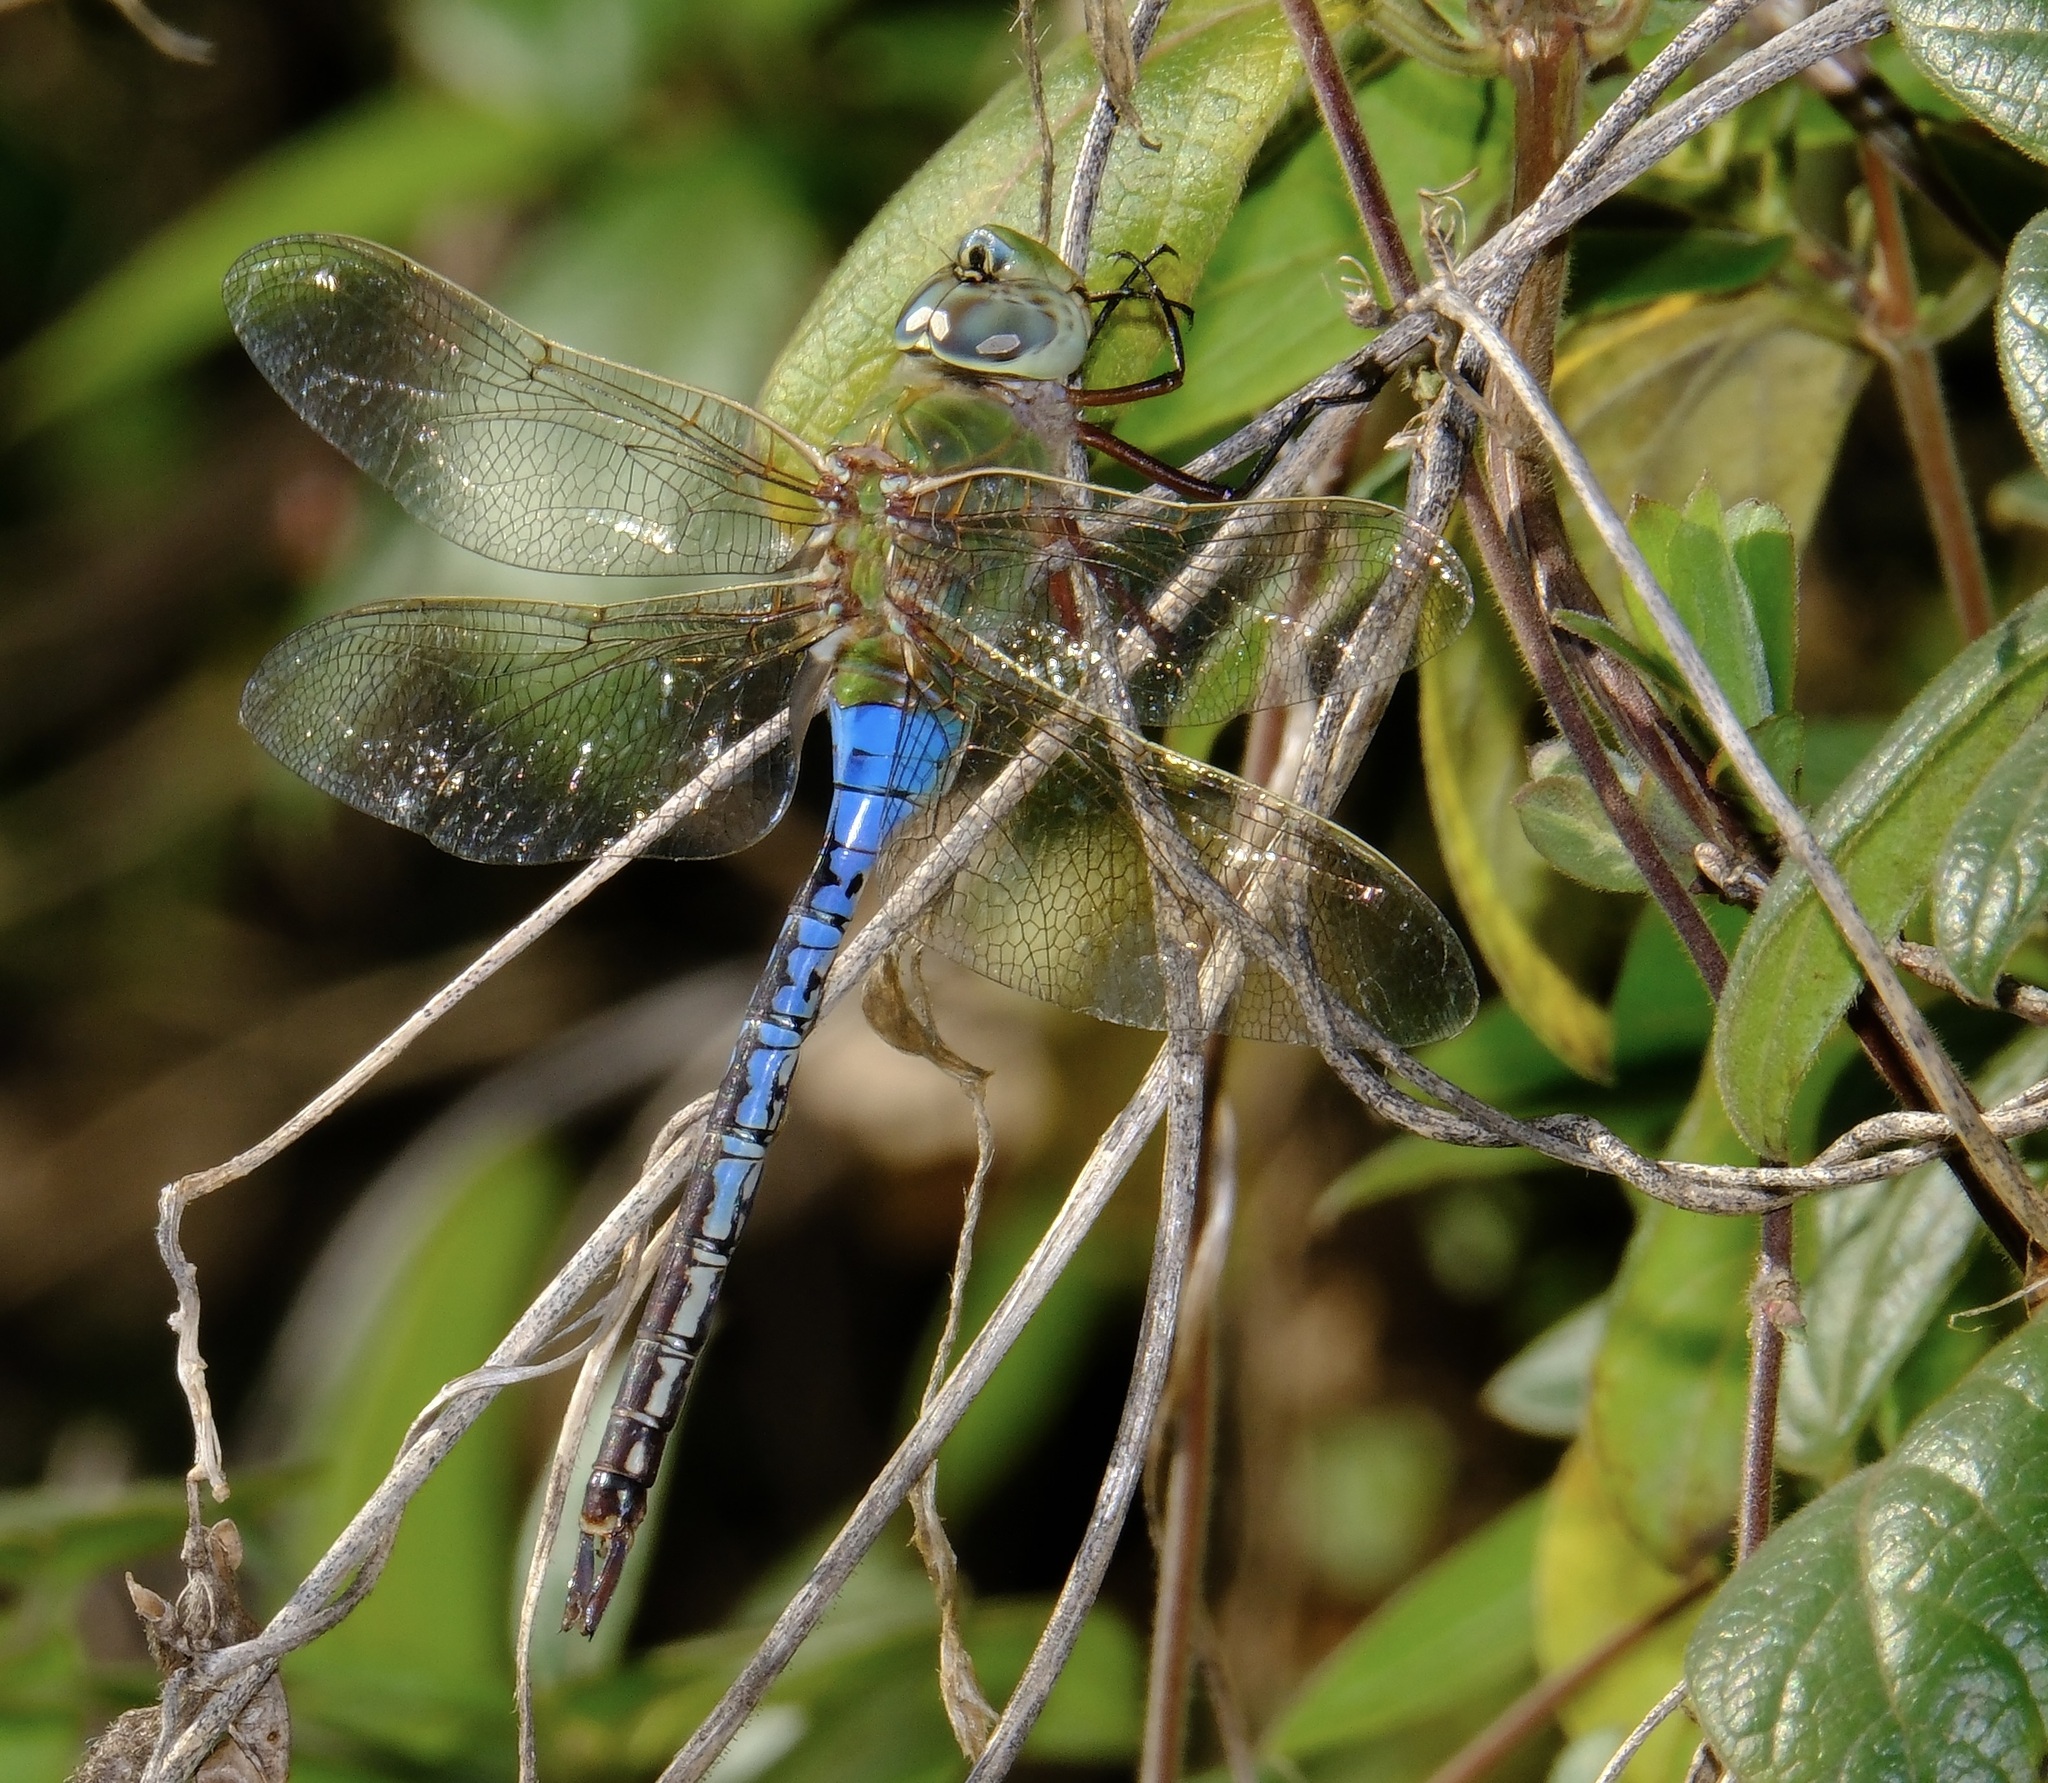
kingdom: Animalia
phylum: Arthropoda
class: Insecta
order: Odonata
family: Aeshnidae
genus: Anax
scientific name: Anax junius
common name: Common green darner
